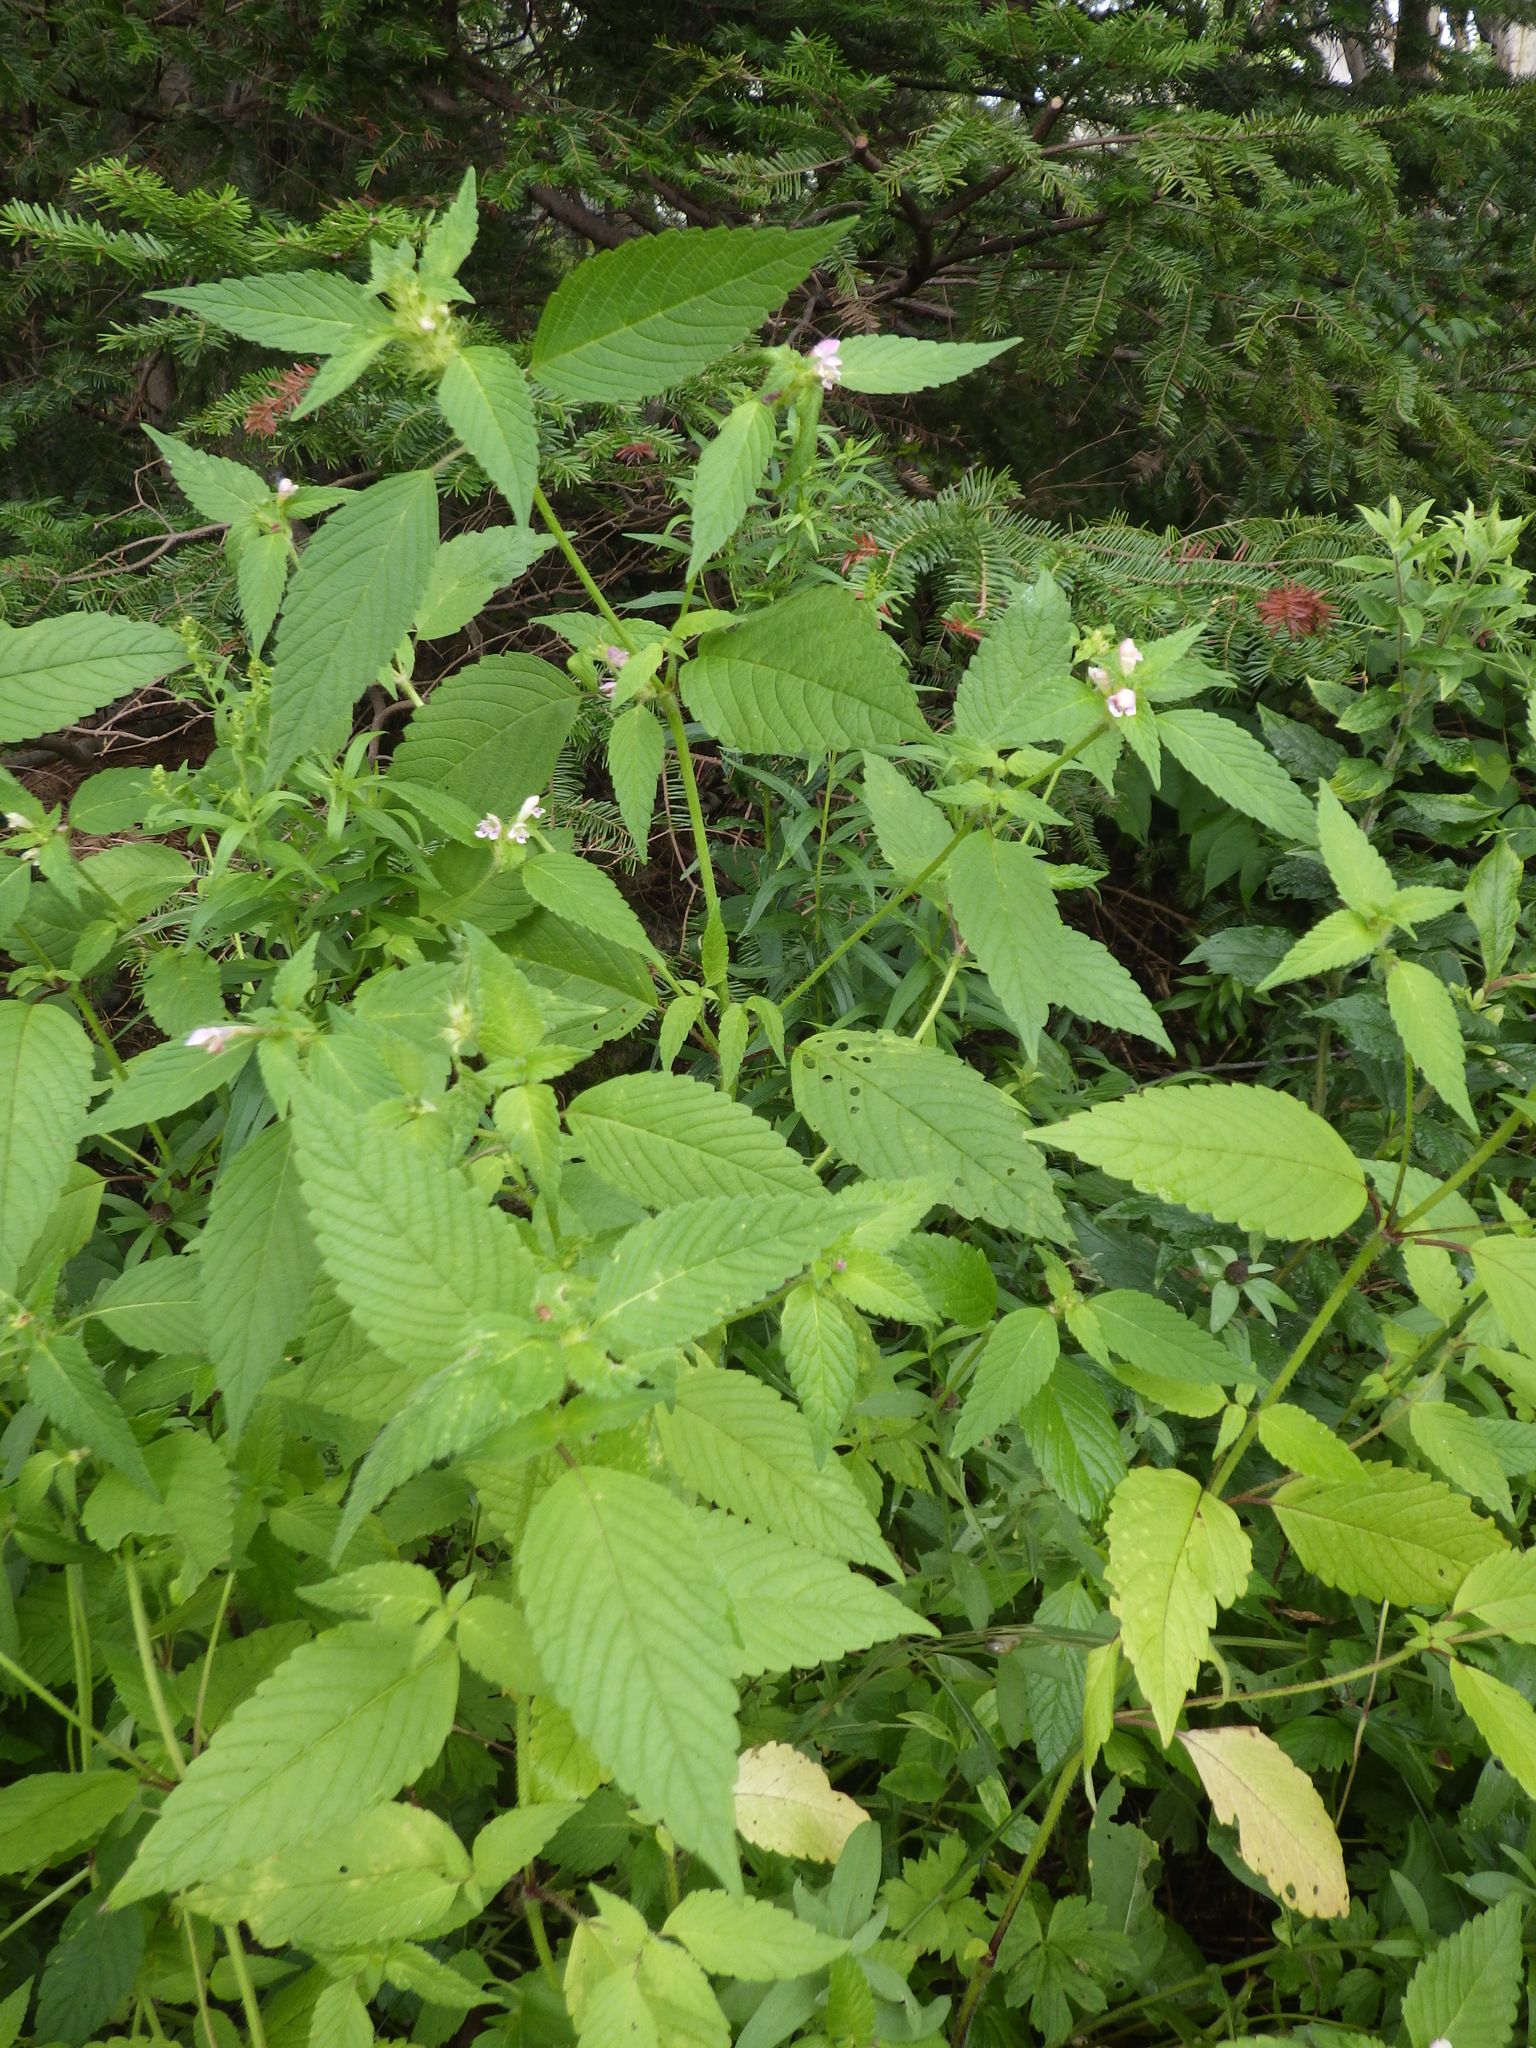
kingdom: Plantae
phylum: Tracheophyta
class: Magnoliopsida
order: Lamiales
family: Lamiaceae
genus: Galeopsis
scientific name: Galeopsis tetrahit
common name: Common hemp-nettle
